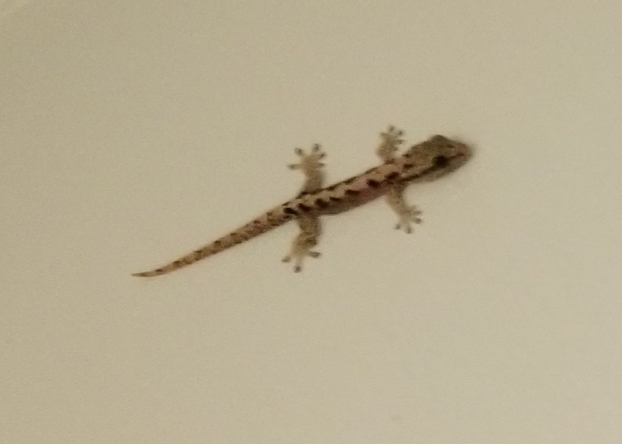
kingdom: Animalia
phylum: Chordata
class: Squamata
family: Gekkonidae
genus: Lepidodactylus
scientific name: Lepidodactylus lugubris
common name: Mourning gecko
